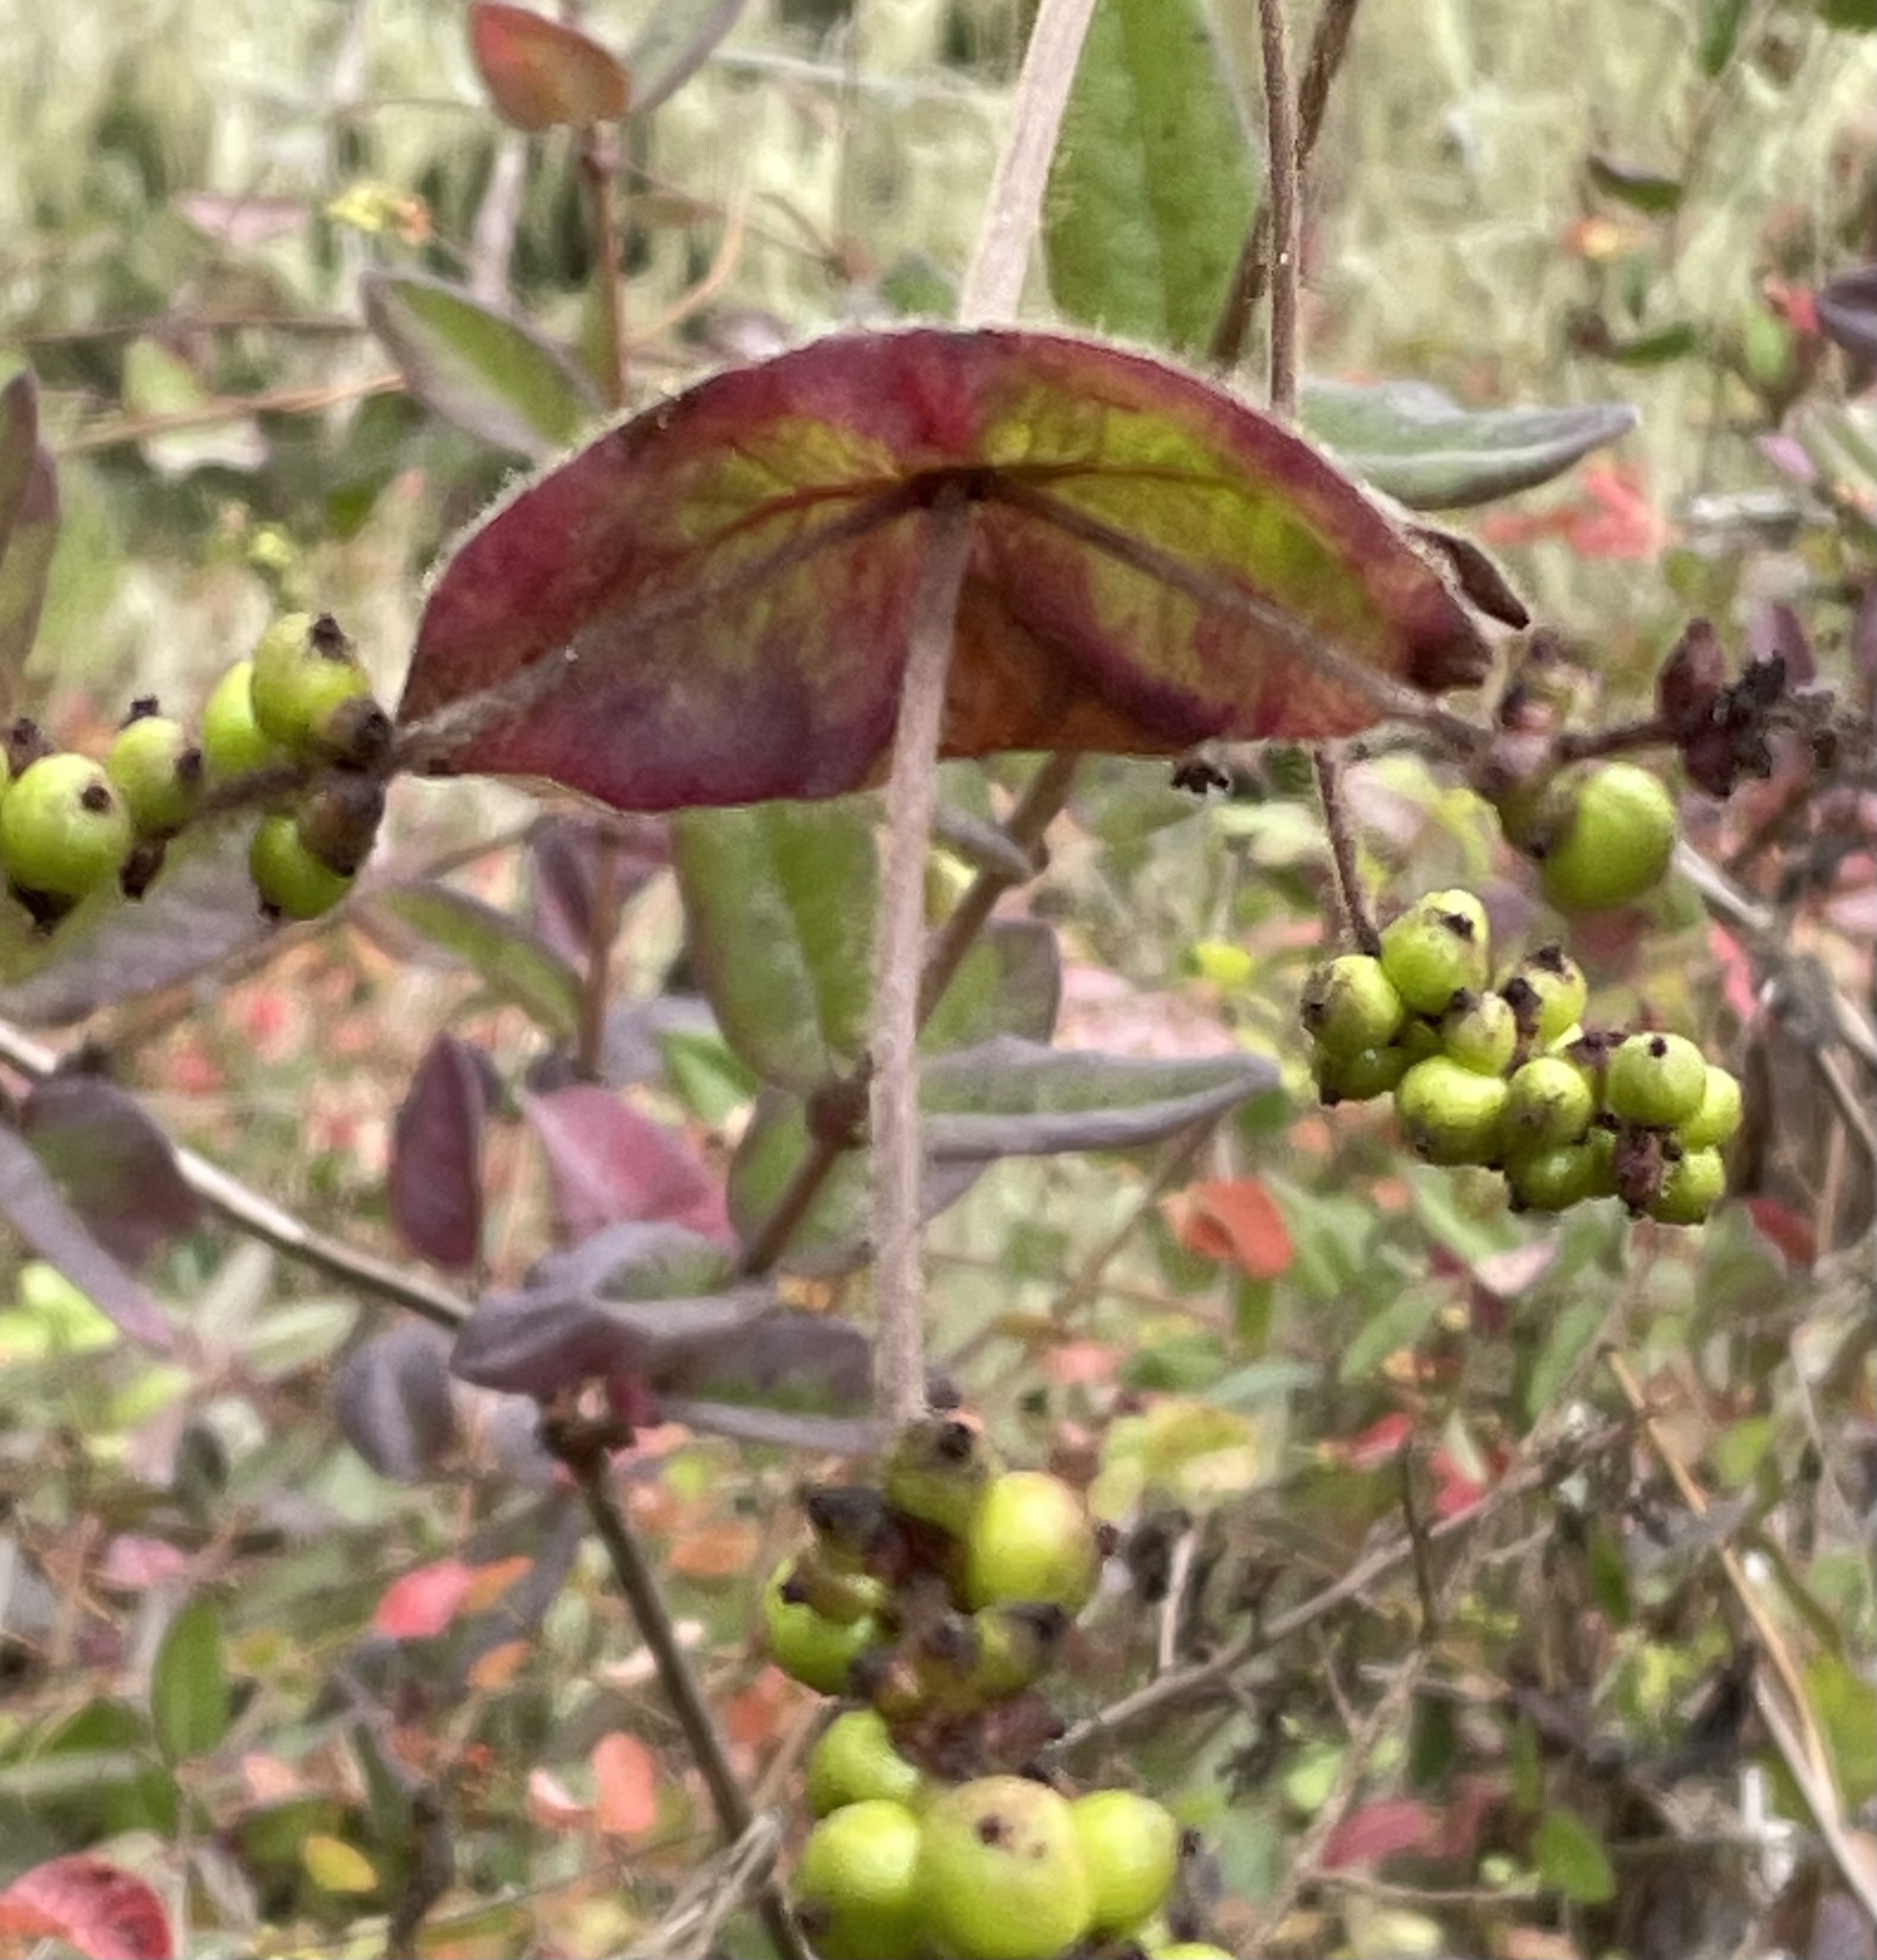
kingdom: Plantae
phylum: Tracheophyta
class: Magnoliopsida
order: Dipsacales
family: Caprifoliaceae
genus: Lonicera
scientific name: Lonicera hispidula
